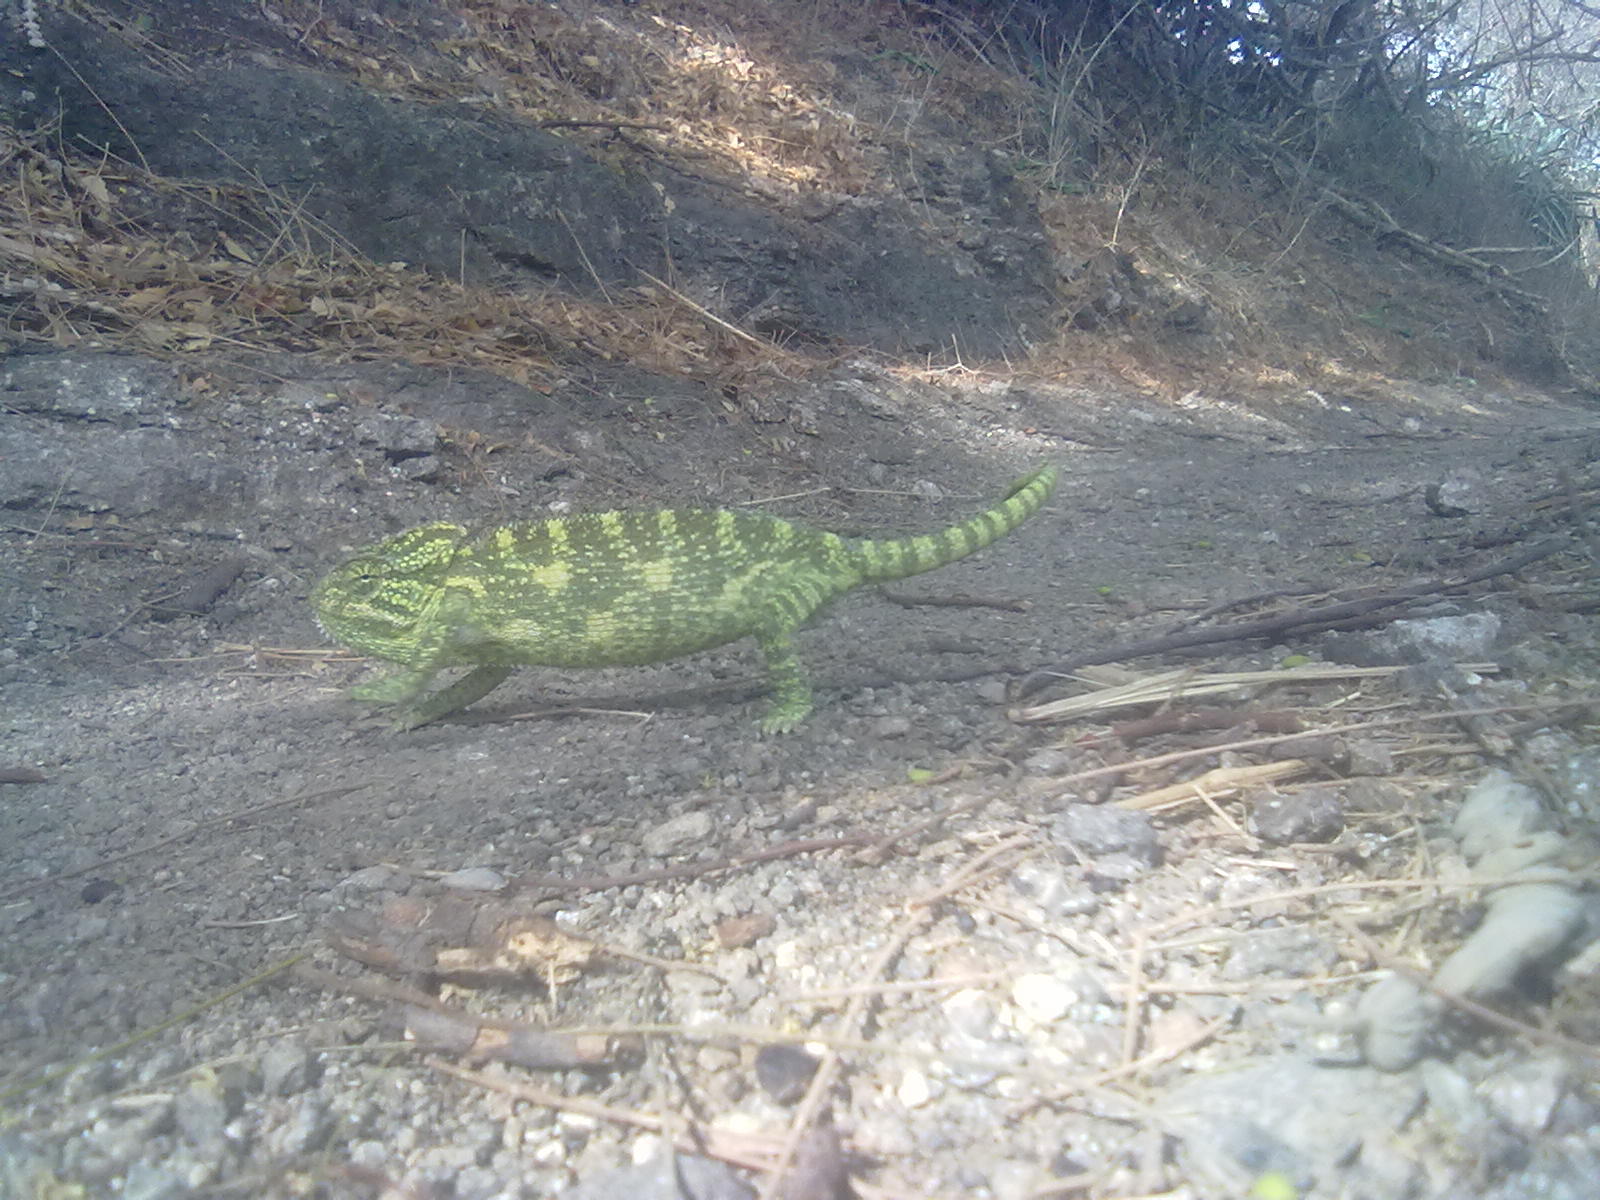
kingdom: Animalia
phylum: Chordata
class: Squamata
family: Chamaeleonidae
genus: Chamaeleo
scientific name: Chamaeleo zeylanicus
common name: Indian chameleon
